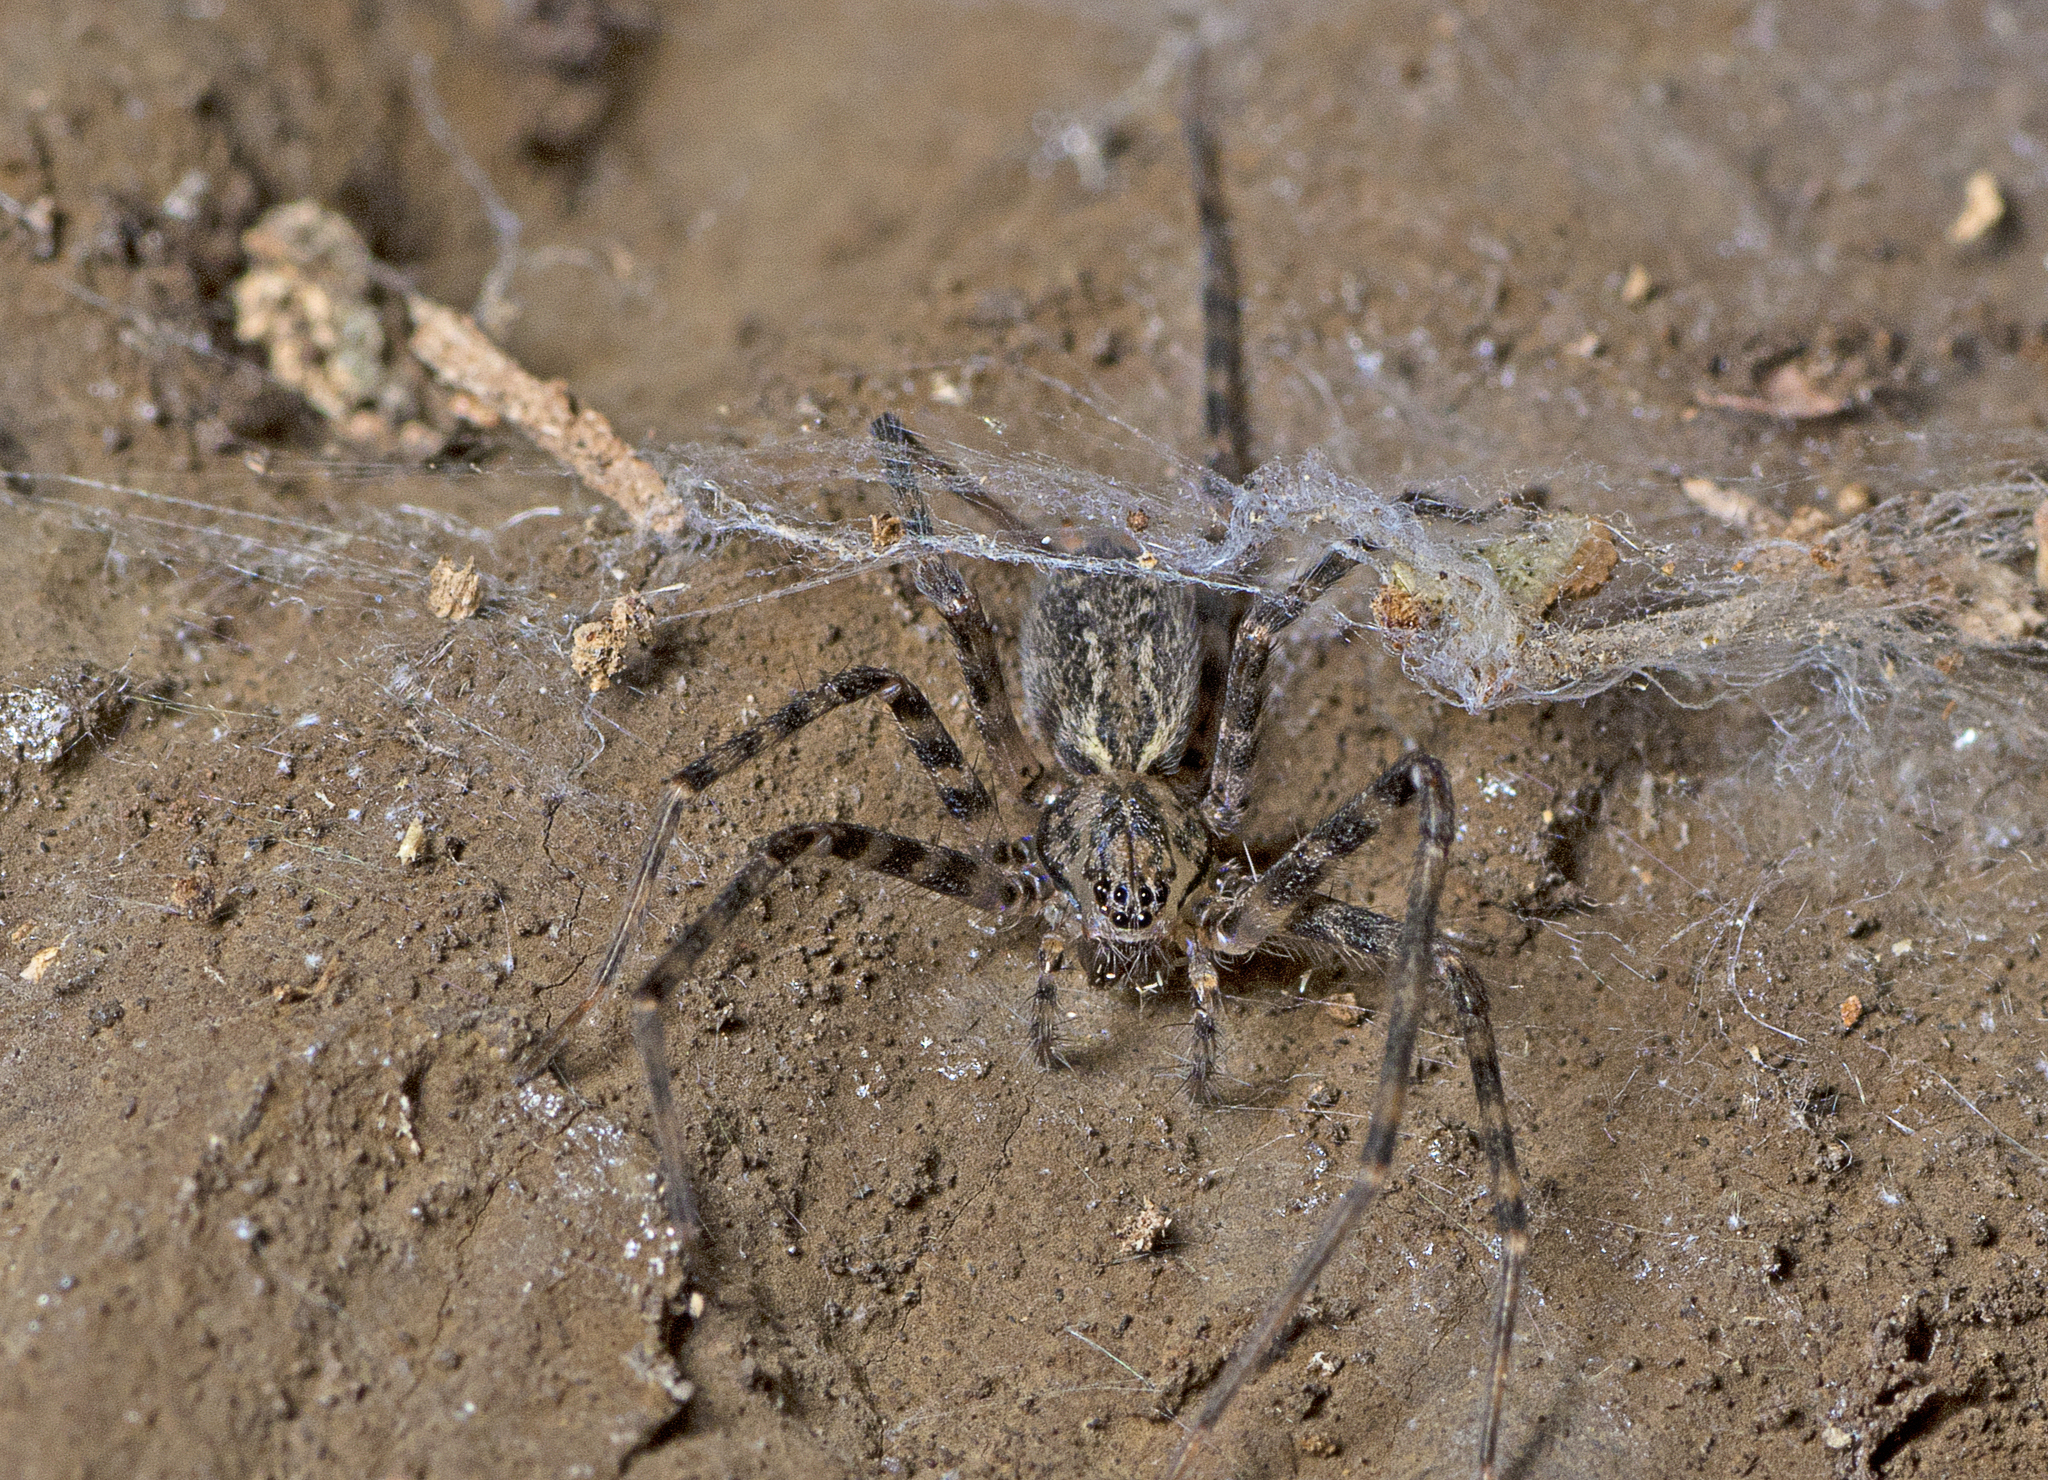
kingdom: Animalia
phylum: Arthropoda
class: Arachnida
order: Araneae
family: Stiphidiidae
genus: Stiphidion
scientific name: Stiphidion facetum
